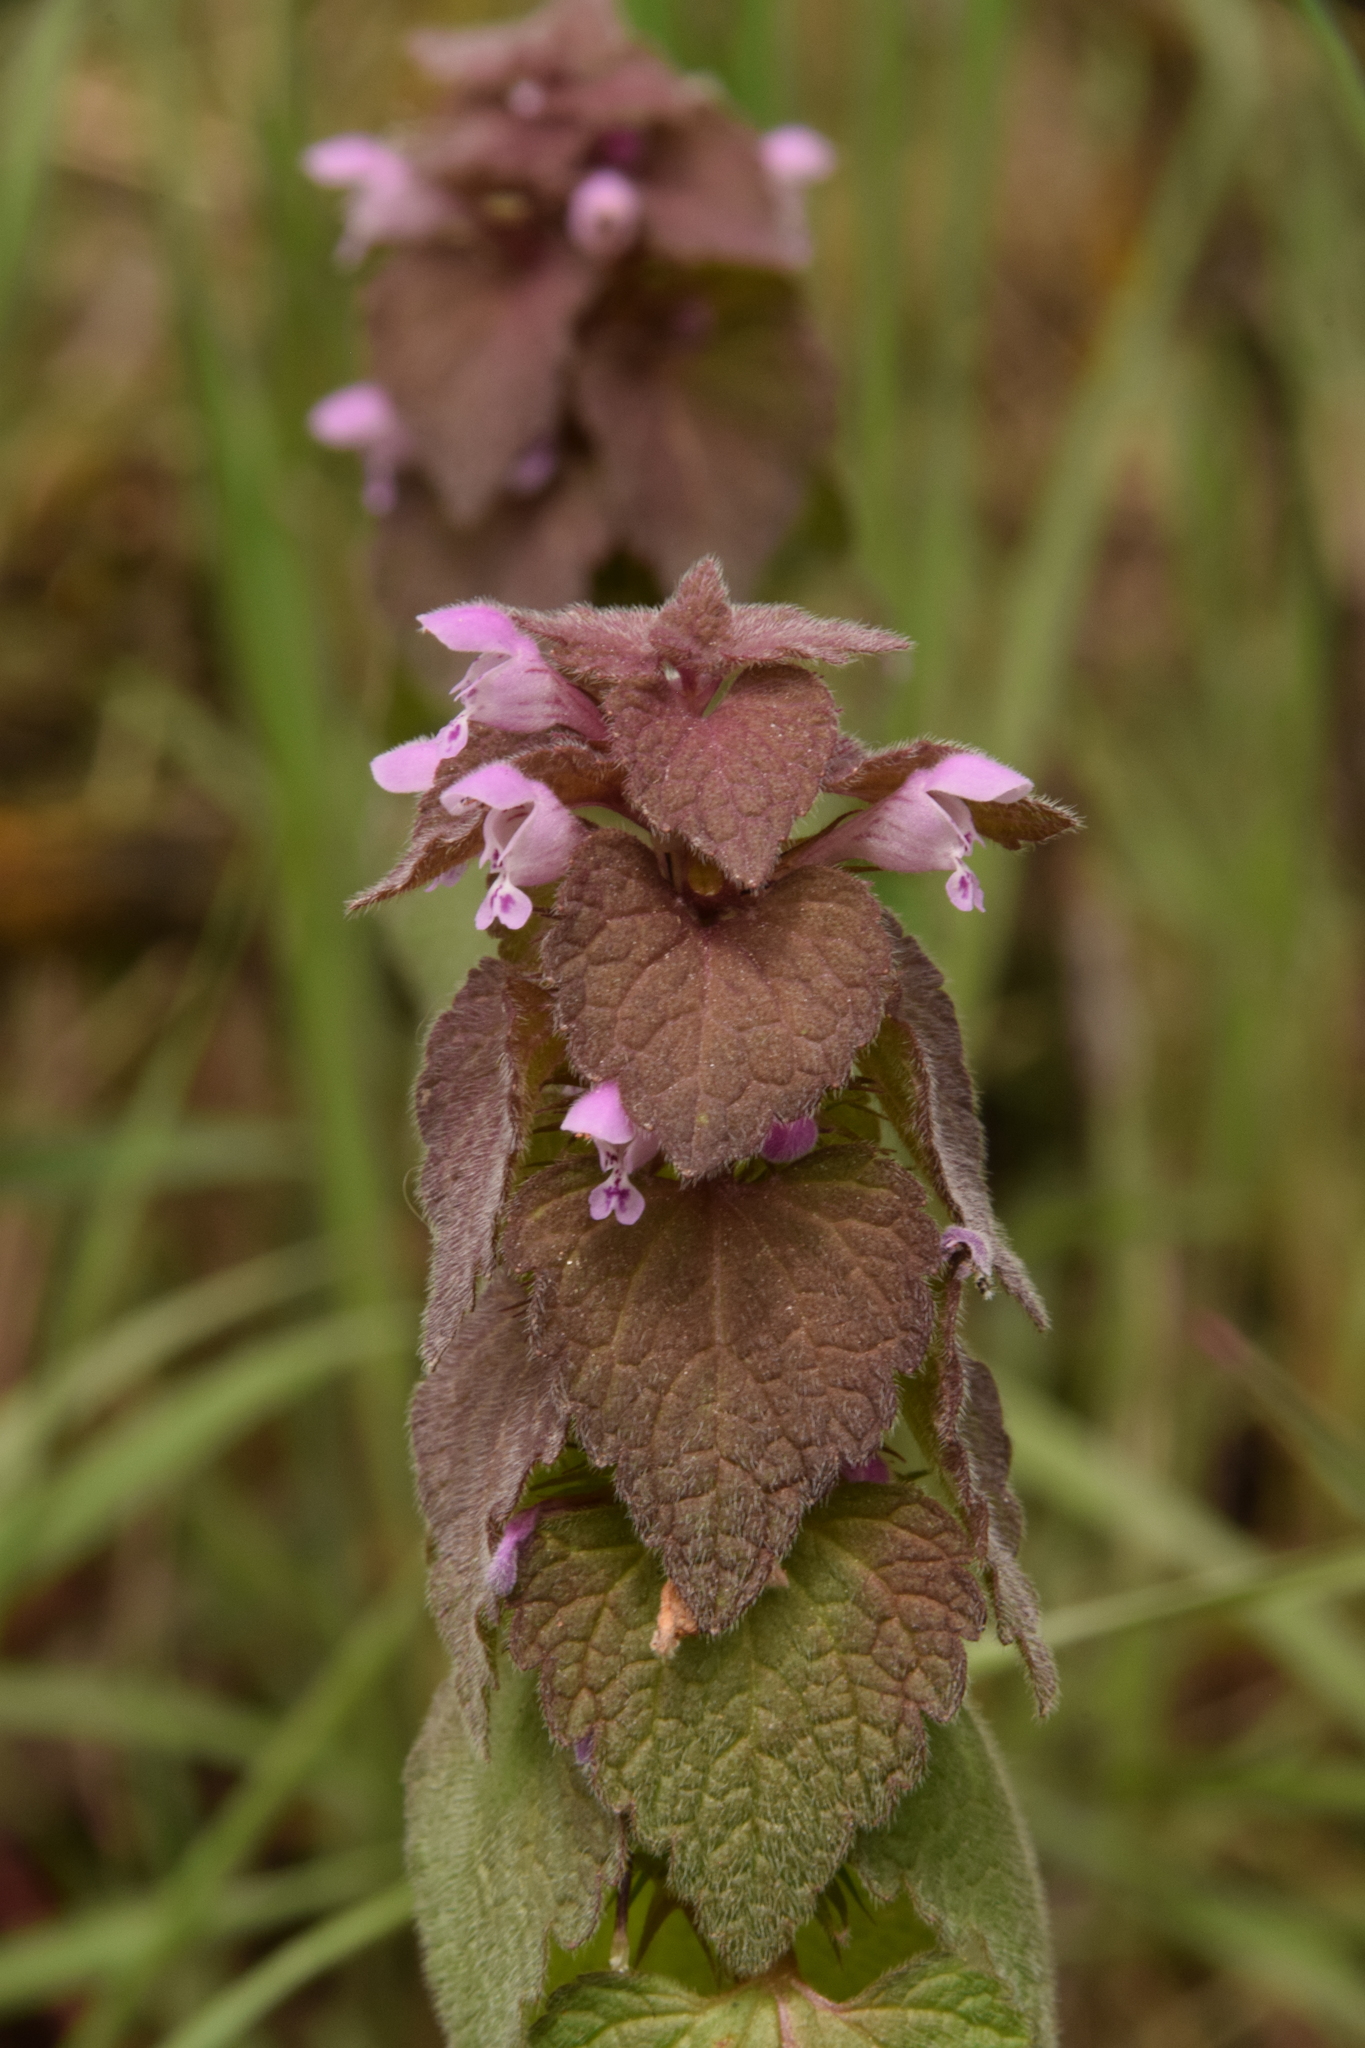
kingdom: Plantae
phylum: Tracheophyta
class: Magnoliopsida
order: Lamiales
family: Lamiaceae
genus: Lamium
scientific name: Lamium purpureum
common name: Red dead-nettle
